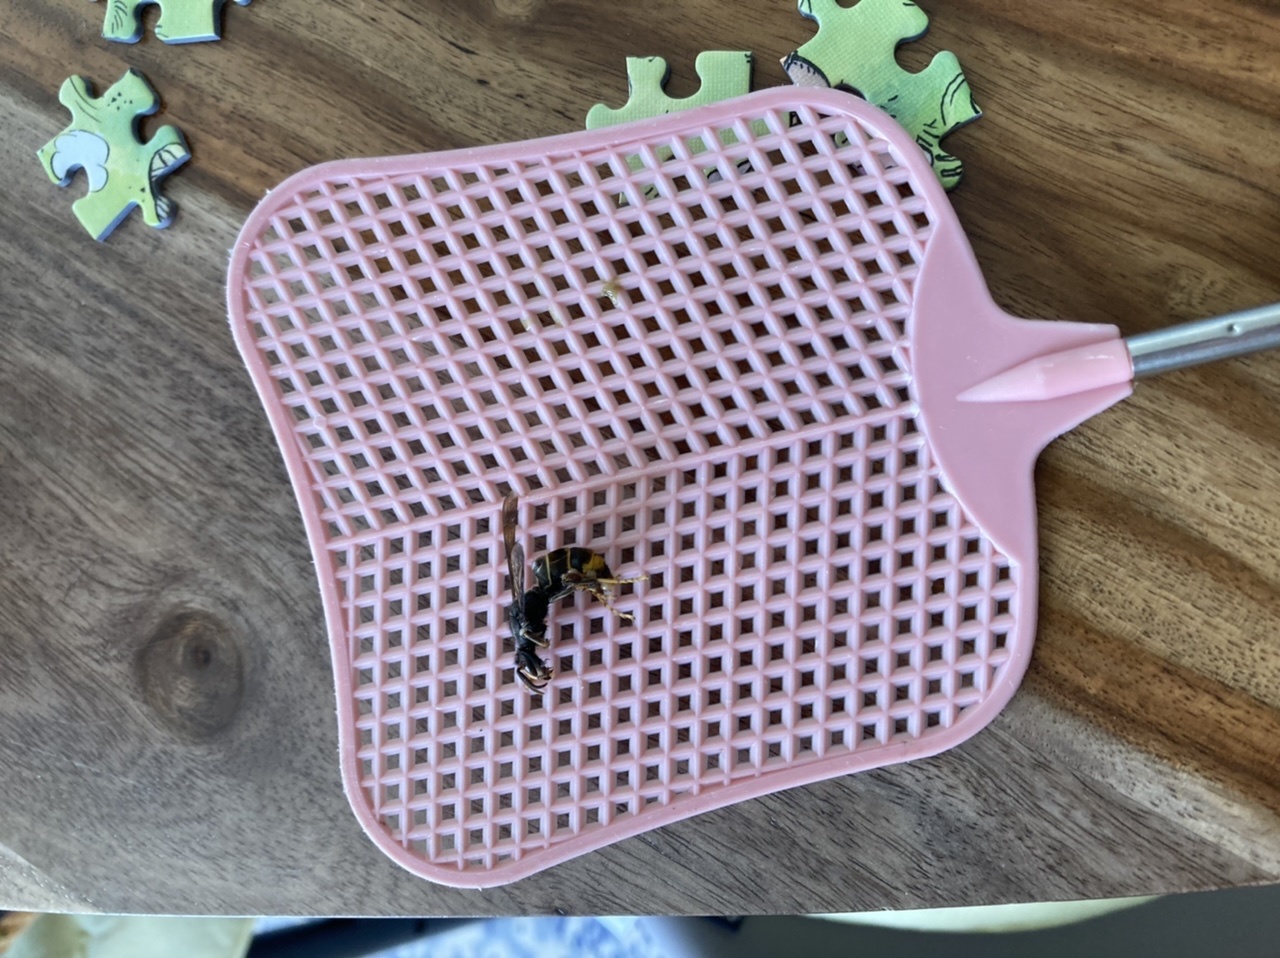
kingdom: Animalia
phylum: Arthropoda
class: Insecta
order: Hymenoptera
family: Vespidae
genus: Vespa
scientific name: Vespa velutina
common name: Asian hornet
